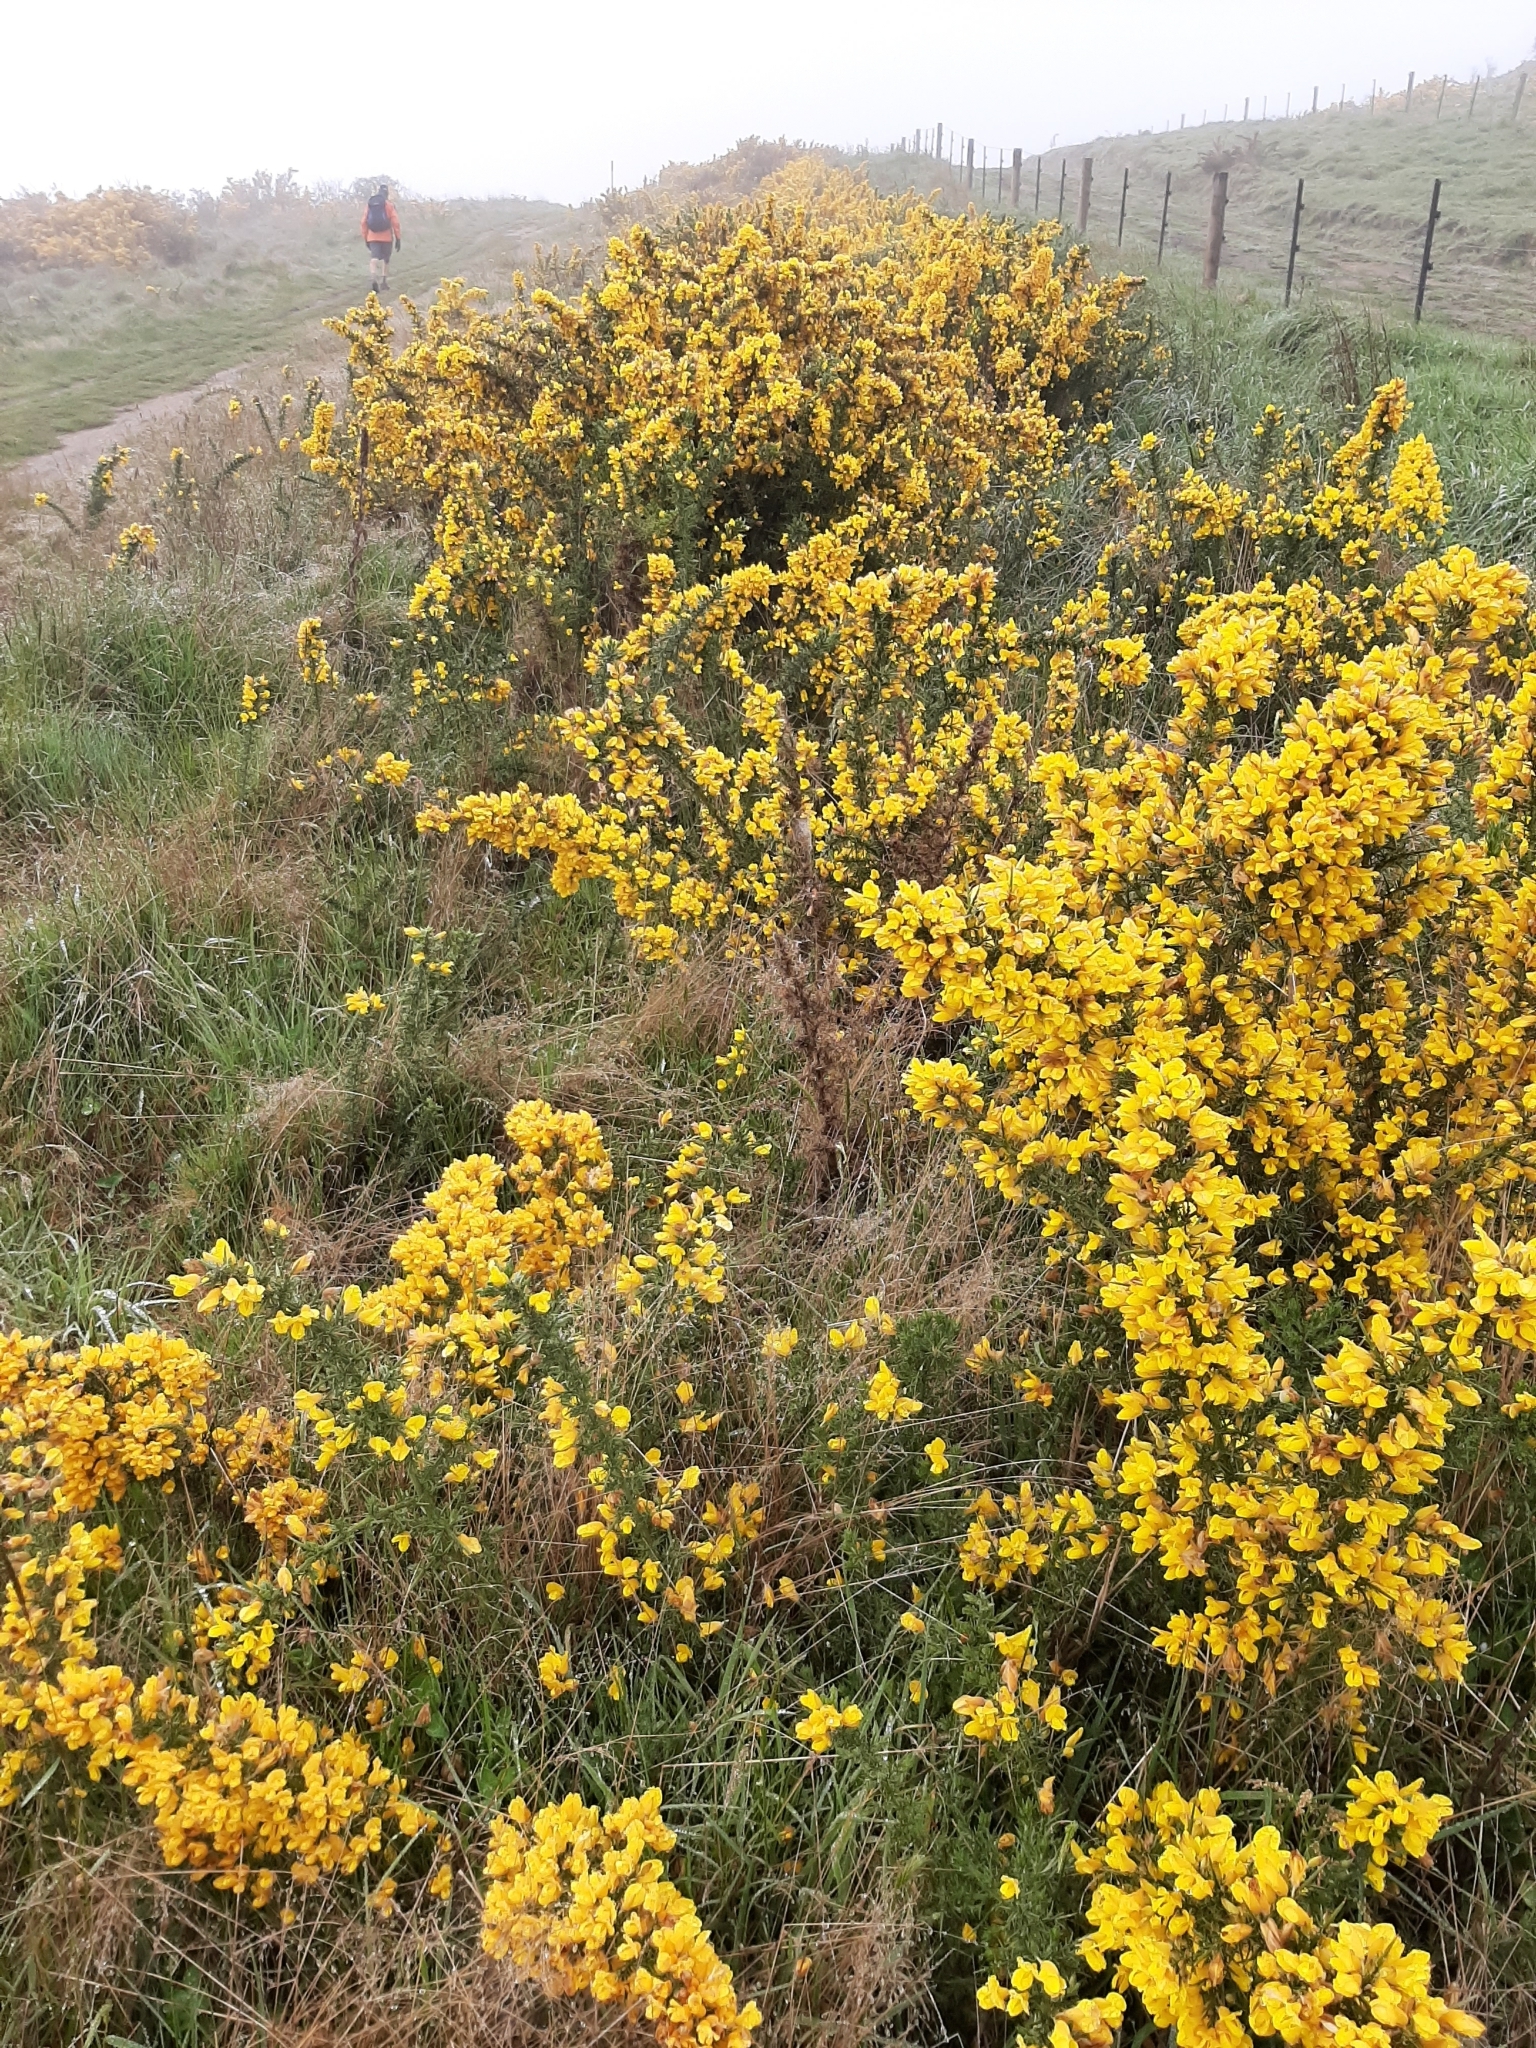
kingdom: Plantae
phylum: Tracheophyta
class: Magnoliopsida
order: Fabales
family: Fabaceae
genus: Ulex
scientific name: Ulex europaeus
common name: Common gorse
